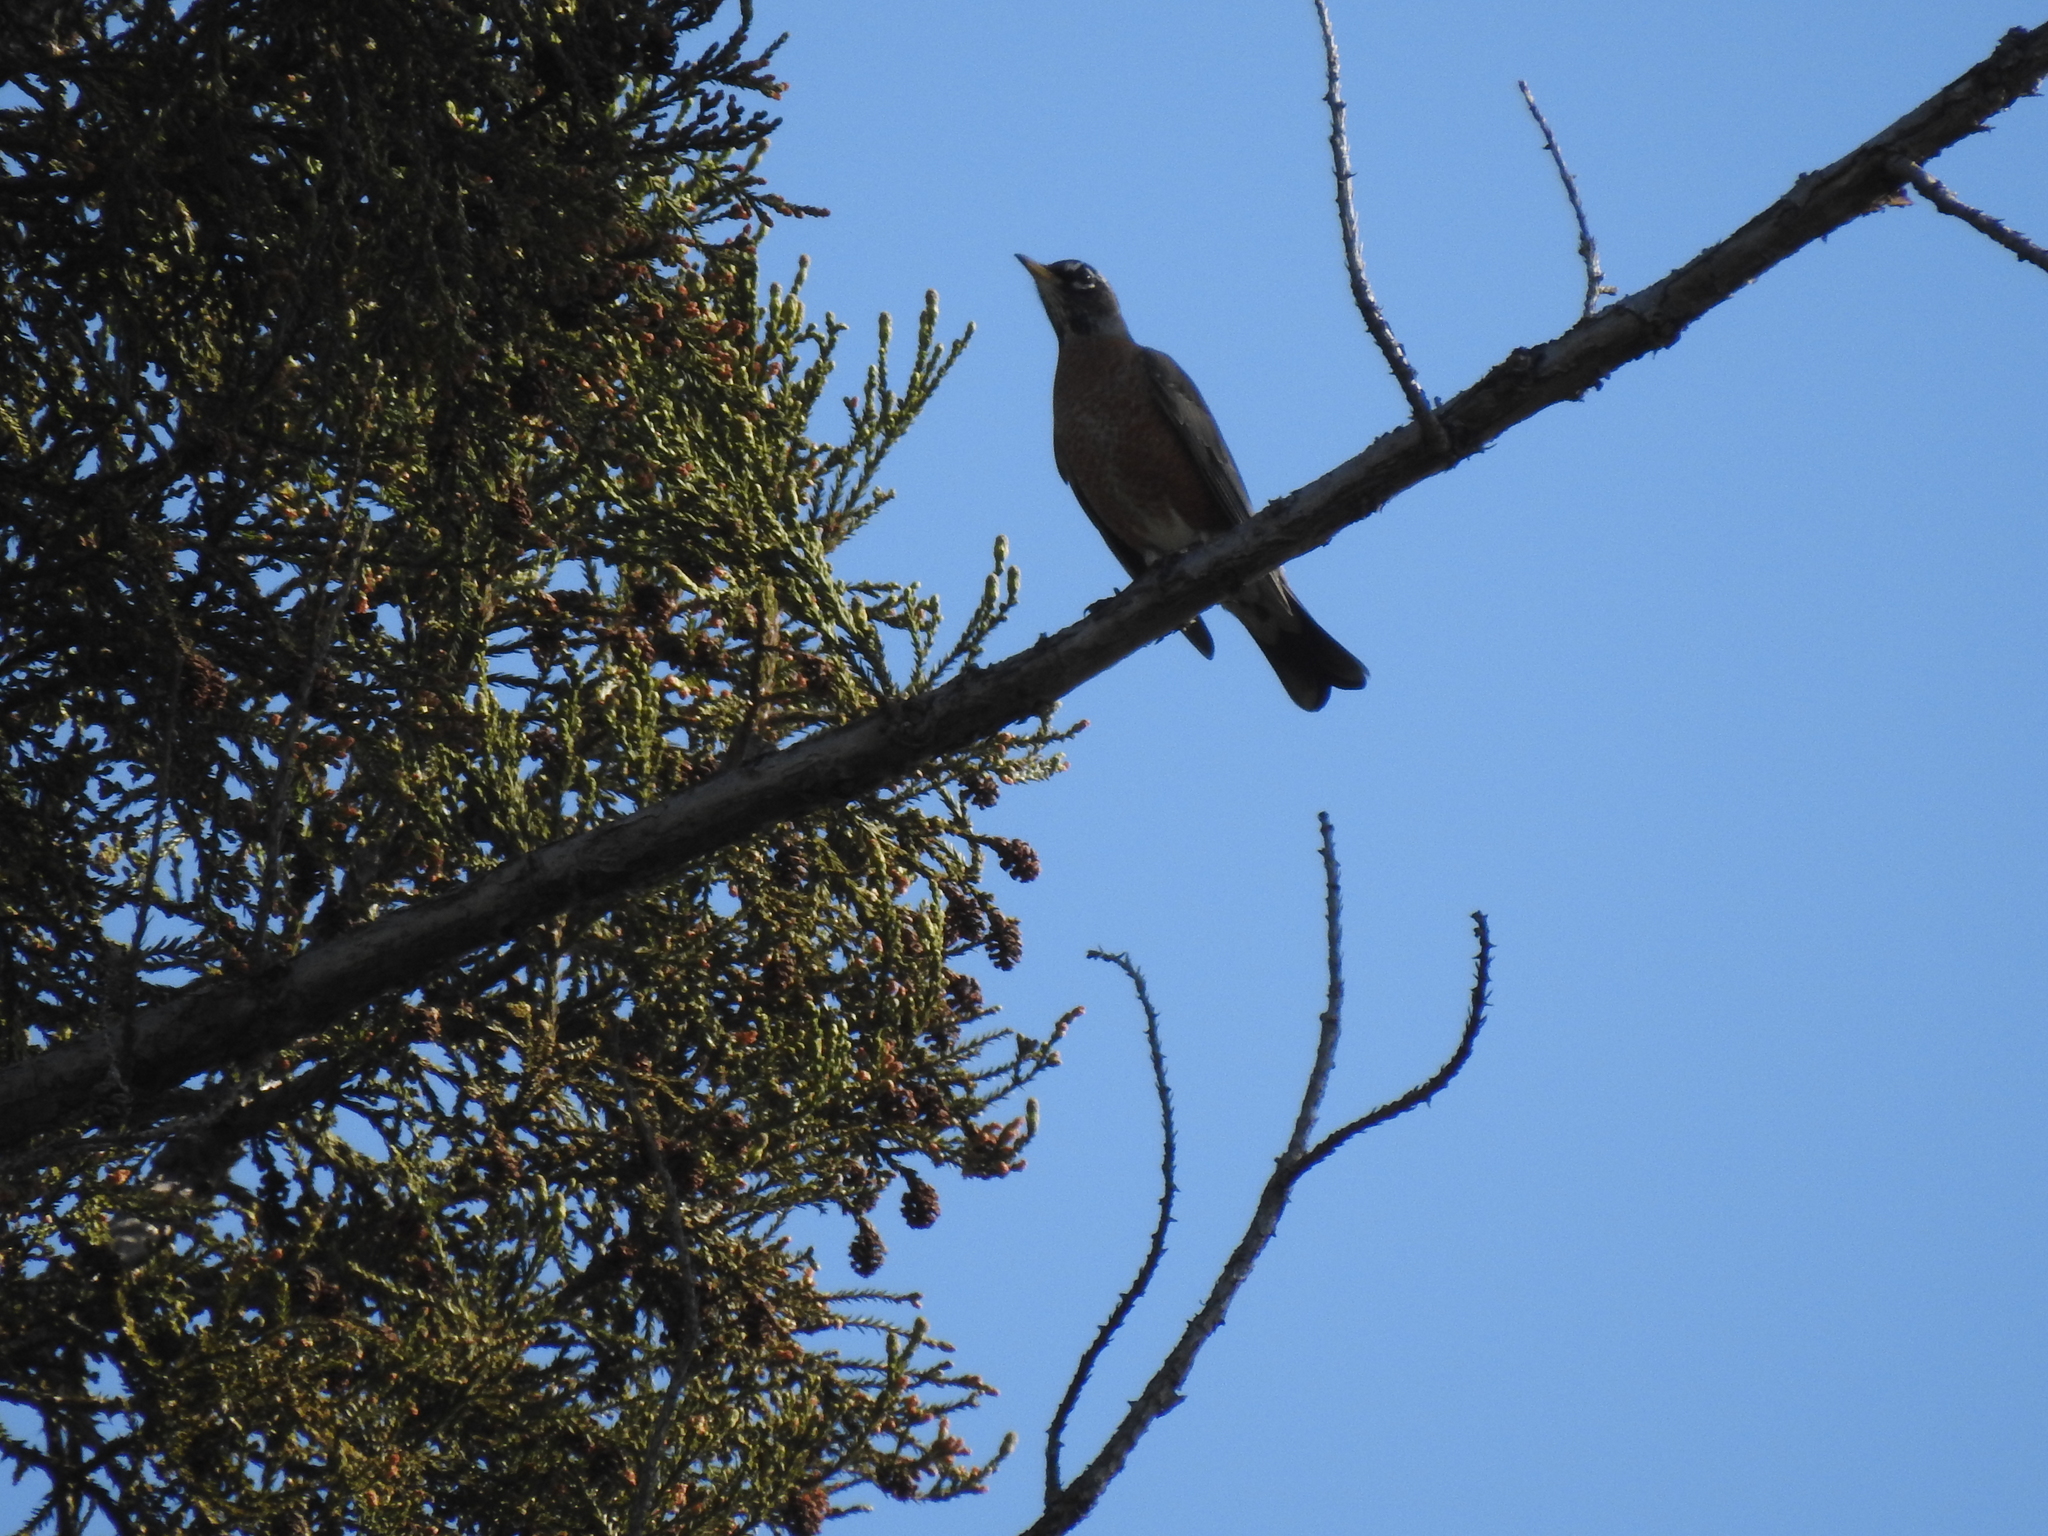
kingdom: Animalia
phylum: Chordata
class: Aves
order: Passeriformes
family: Turdidae
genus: Turdus
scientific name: Turdus migratorius
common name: American robin
